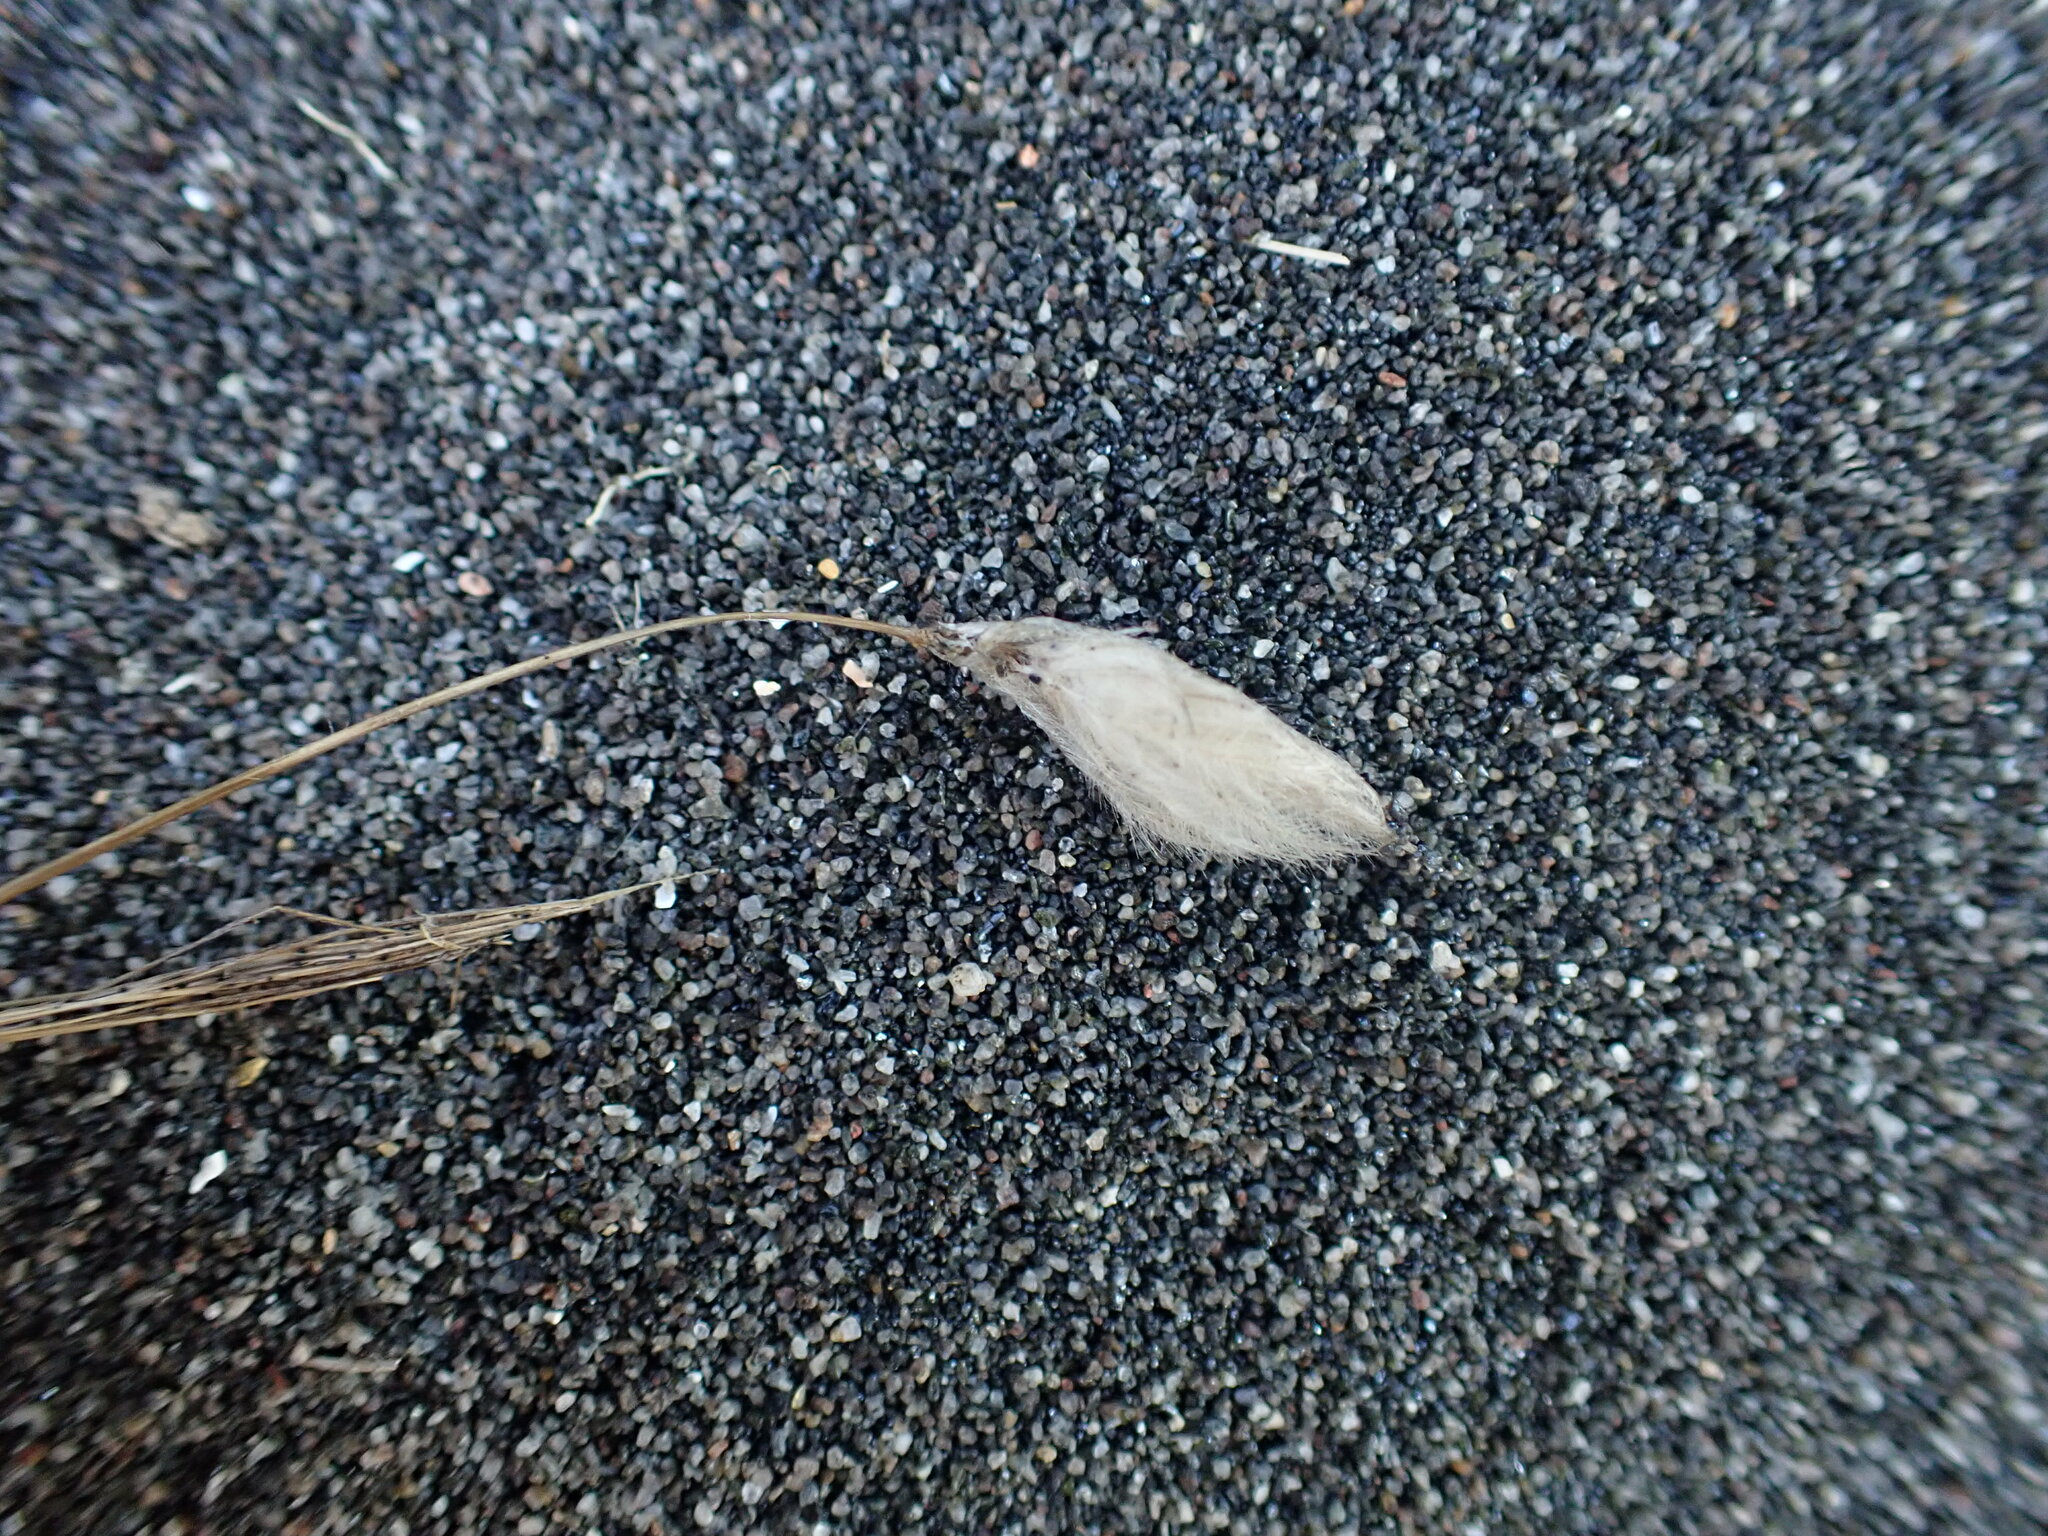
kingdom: Plantae
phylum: Tracheophyta
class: Liliopsida
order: Poales
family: Poaceae
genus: Lagurus
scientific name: Lagurus ovatus
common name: Hare's-tail
